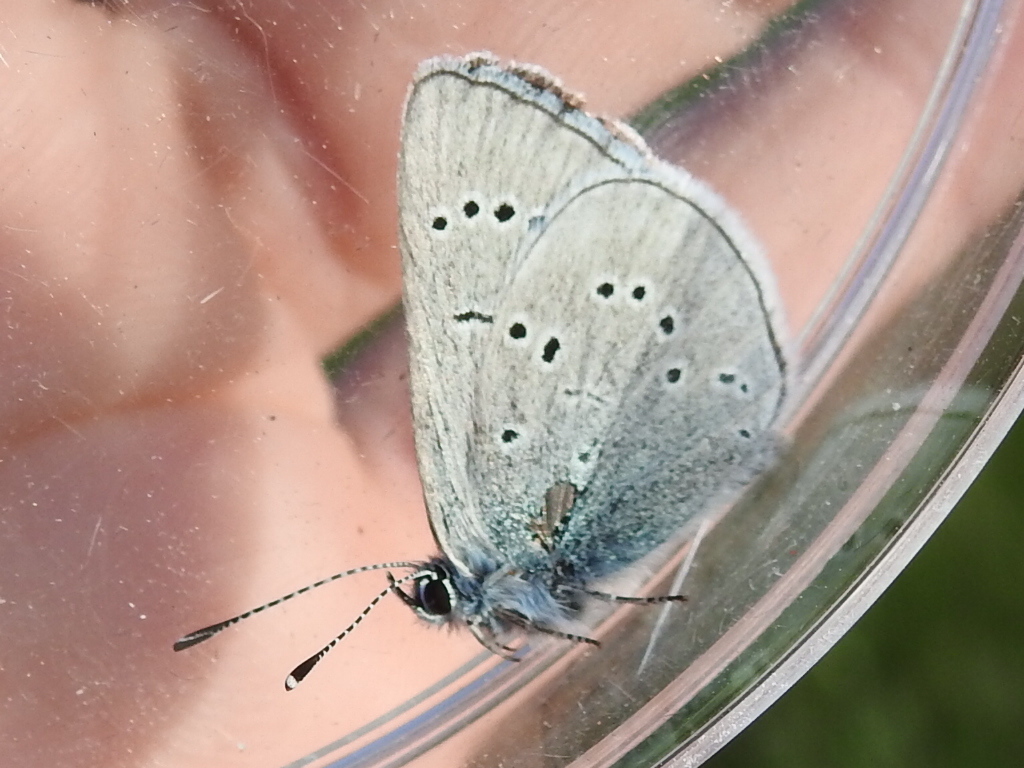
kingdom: Animalia
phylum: Arthropoda
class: Insecta
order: Lepidoptera
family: Lycaenidae
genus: Glaucopsyche
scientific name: Glaucopsyche lygdamus
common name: Silvery blue
